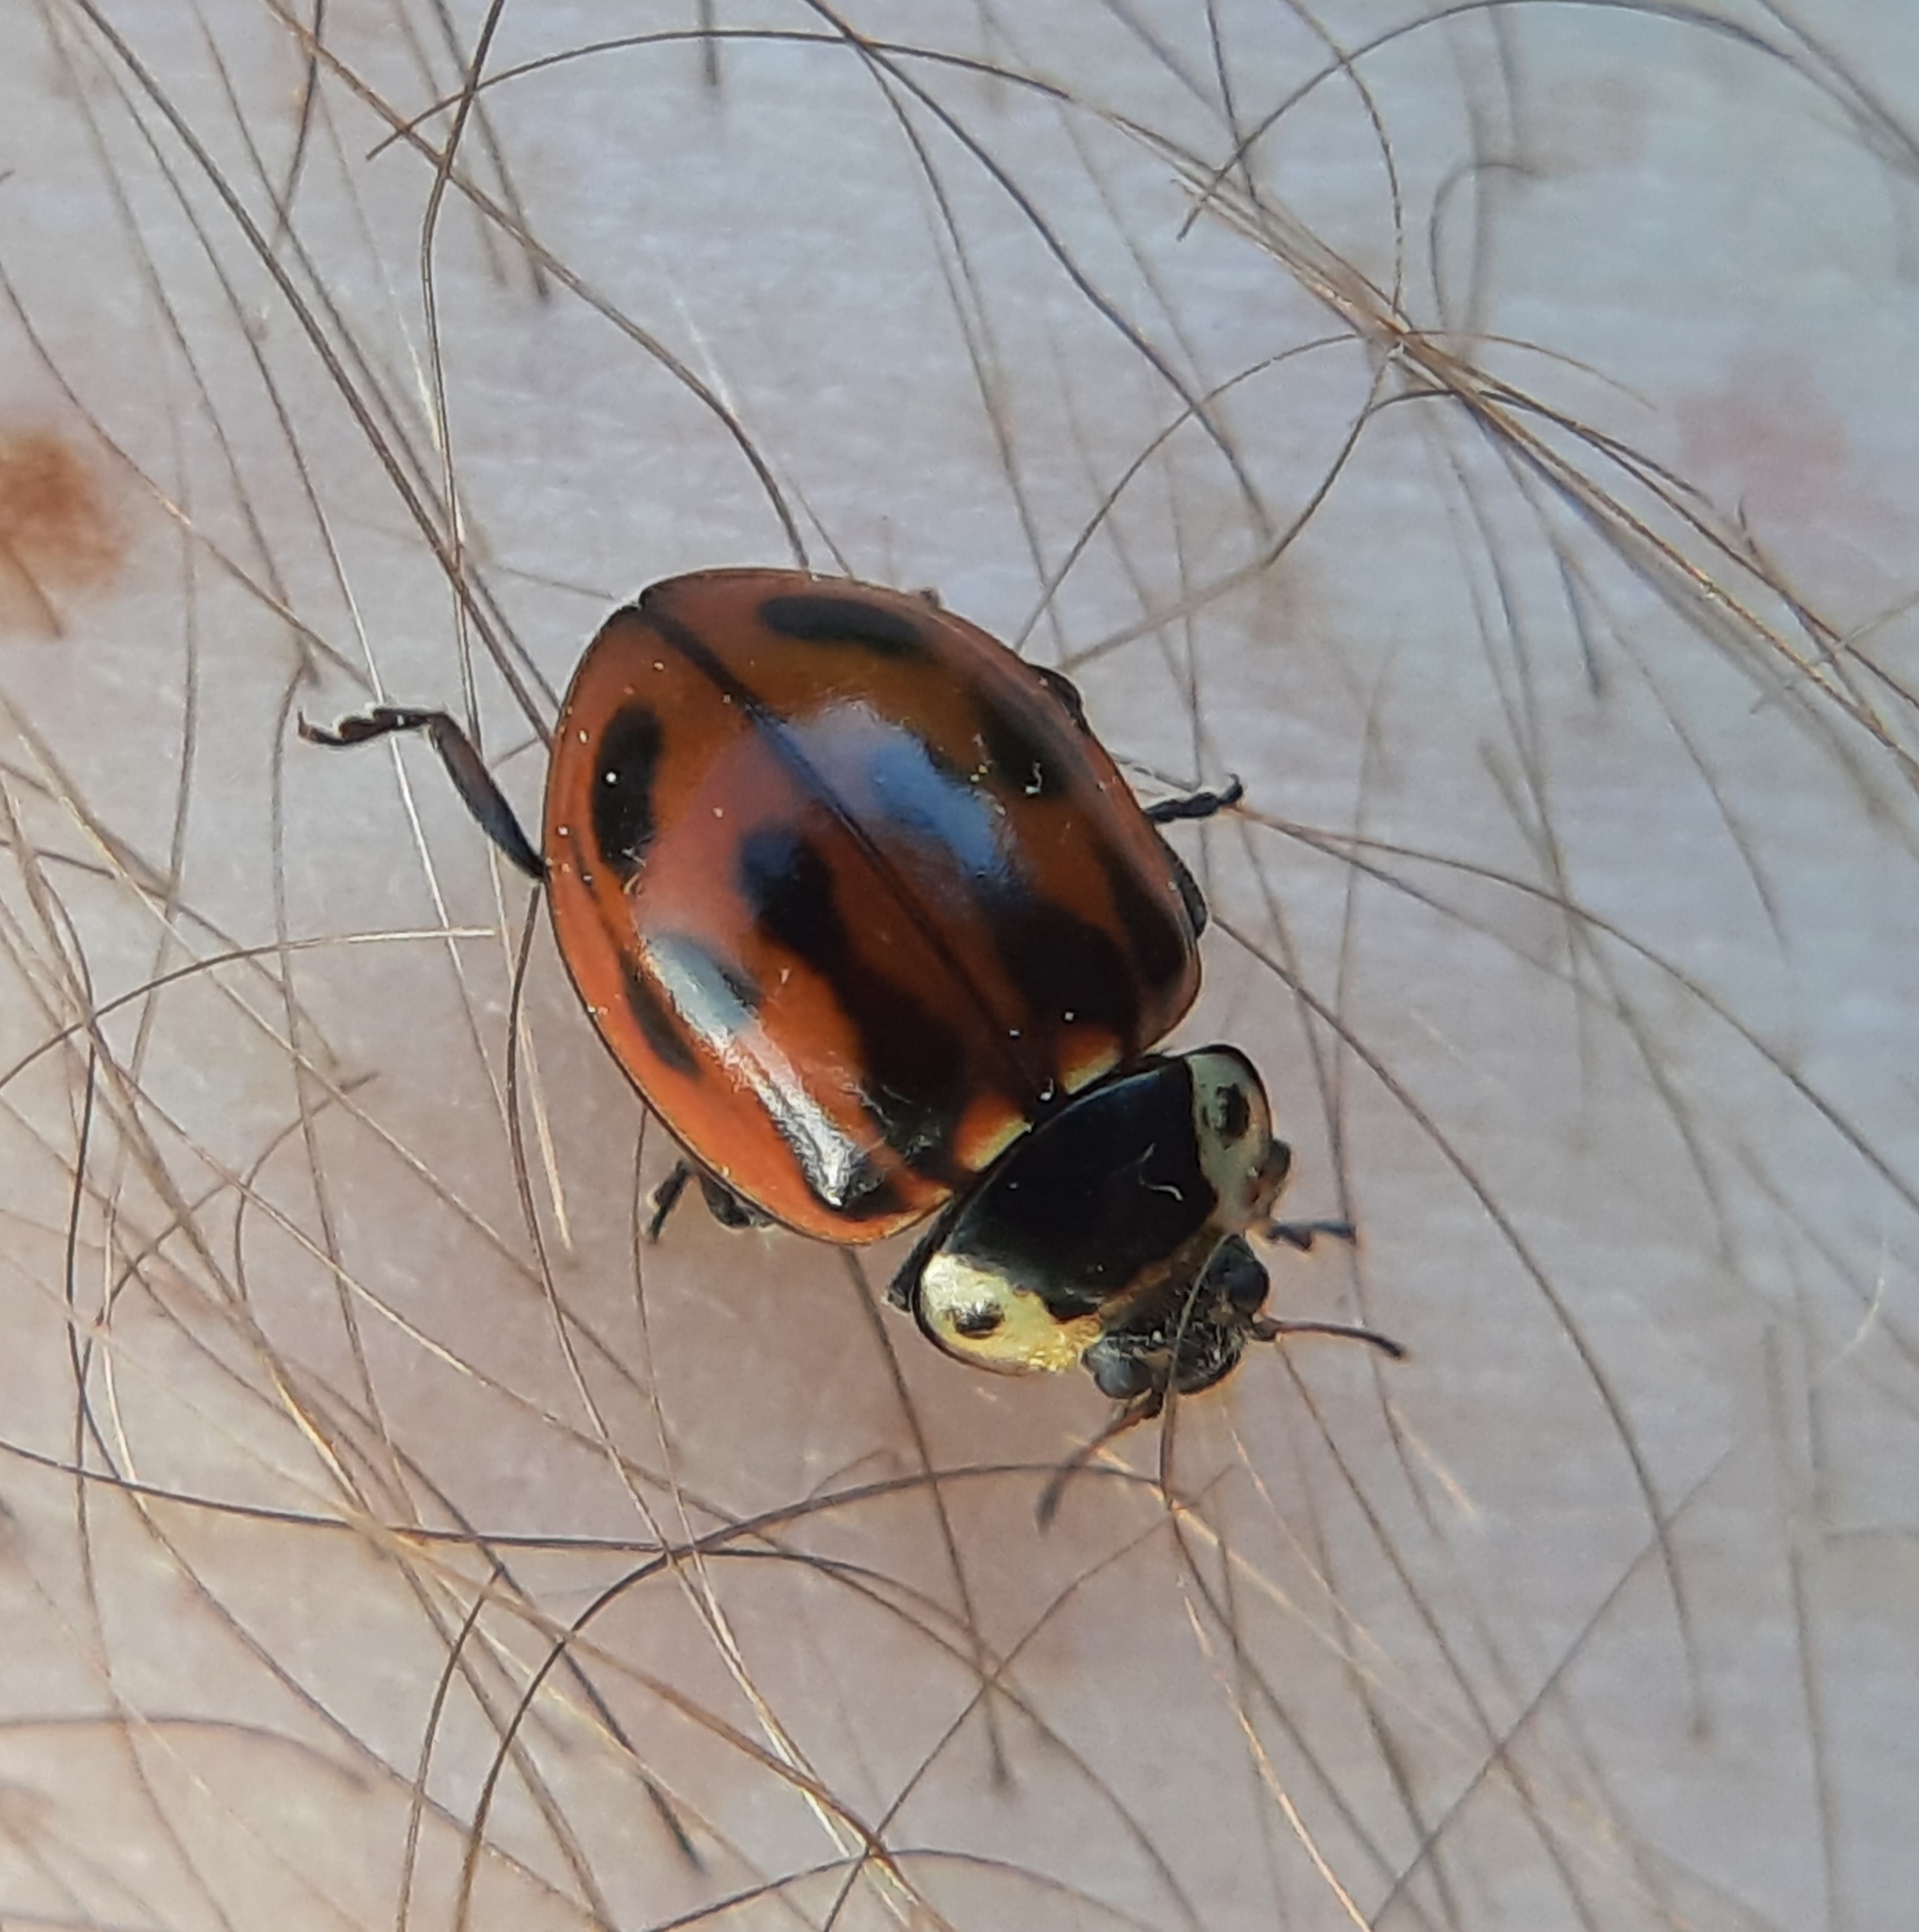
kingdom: Animalia
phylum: Arthropoda
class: Insecta
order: Coleoptera
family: Coccinellidae
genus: Myzia
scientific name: Myzia pullata
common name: Streaked lady beetle
